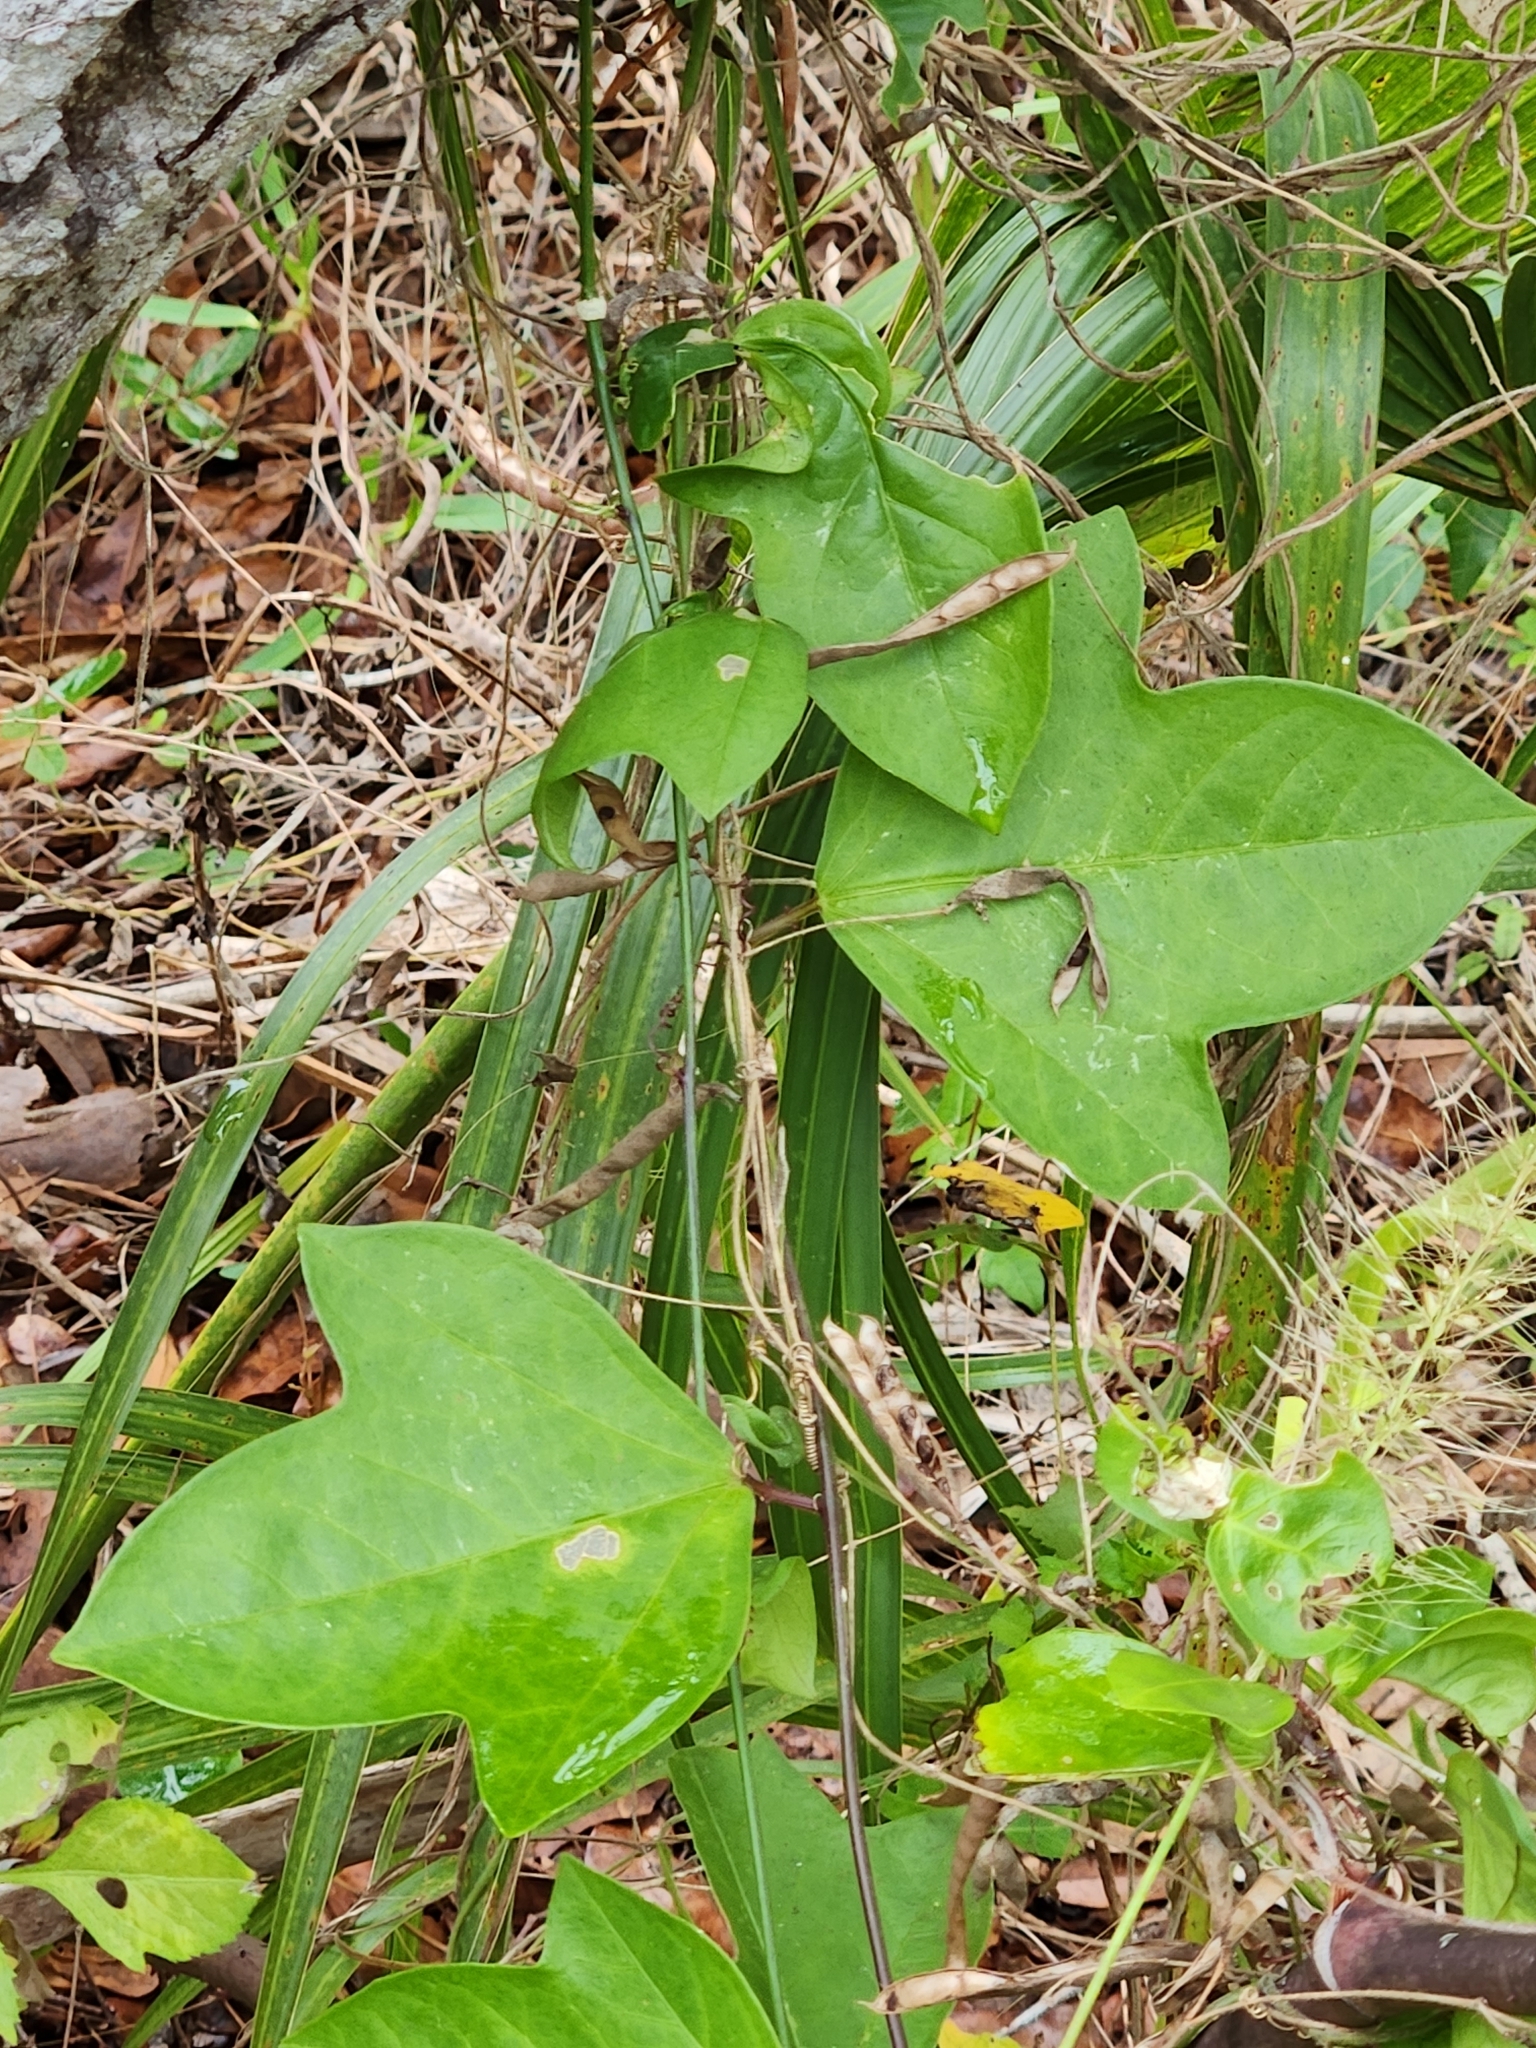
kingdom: Plantae
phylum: Tracheophyta
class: Magnoliopsida
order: Malpighiales
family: Passifloraceae
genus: Passiflora
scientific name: Passiflora pallida
